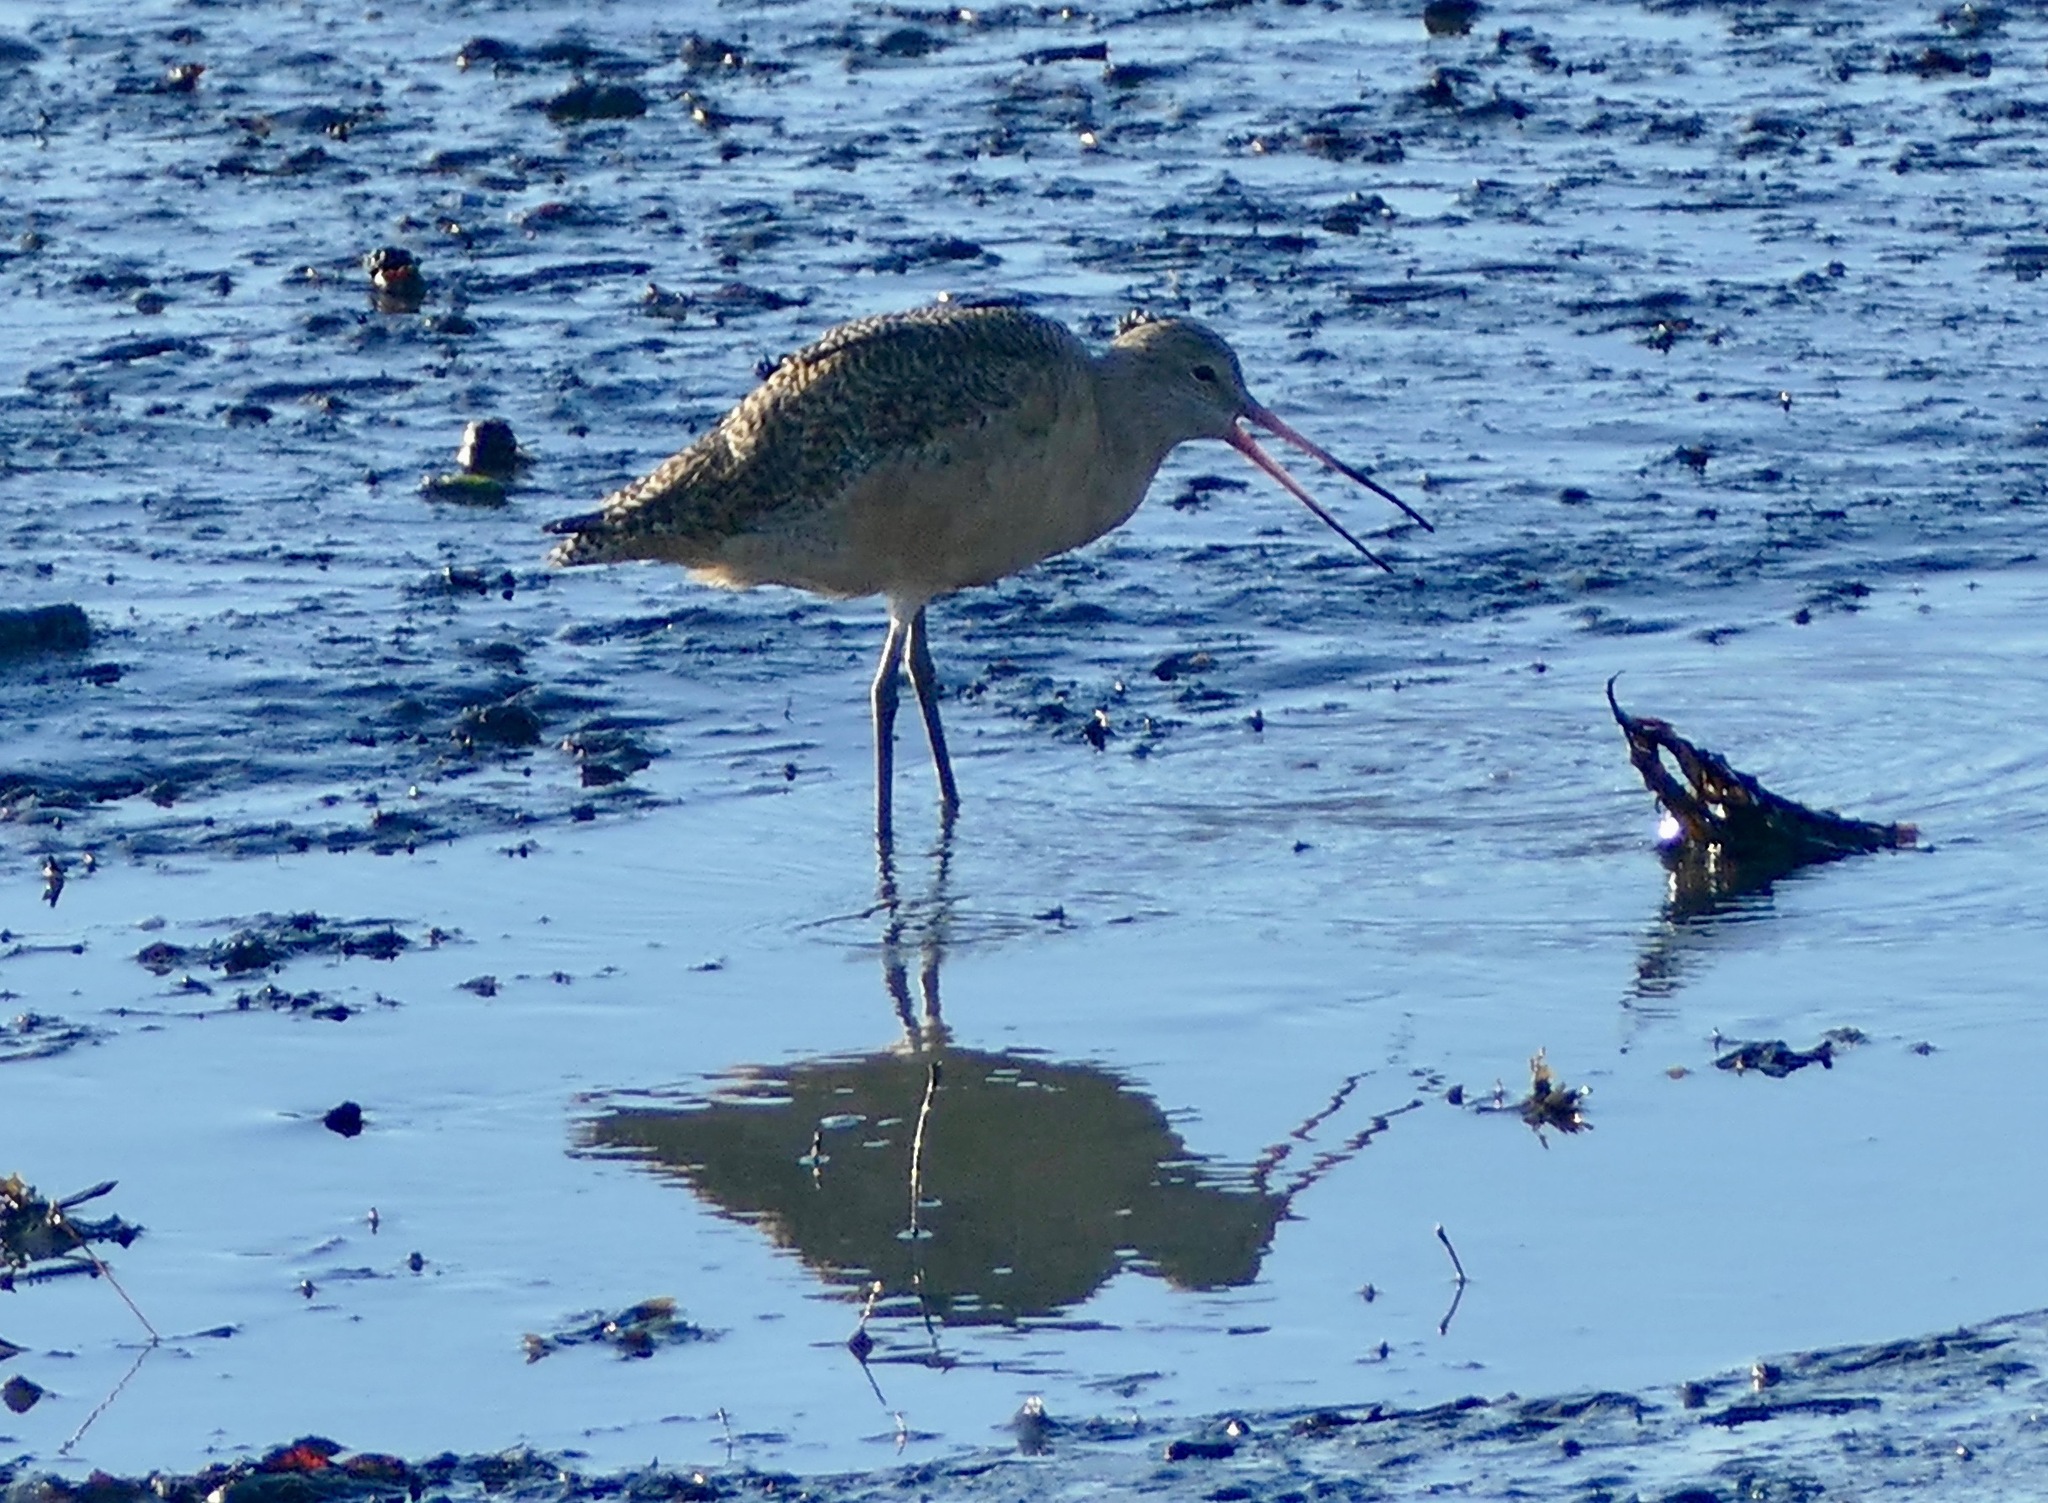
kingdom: Animalia
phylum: Chordata
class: Aves
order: Charadriiformes
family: Scolopacidae
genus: Limosa
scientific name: Limosa fedoa
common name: Marbled godwit
